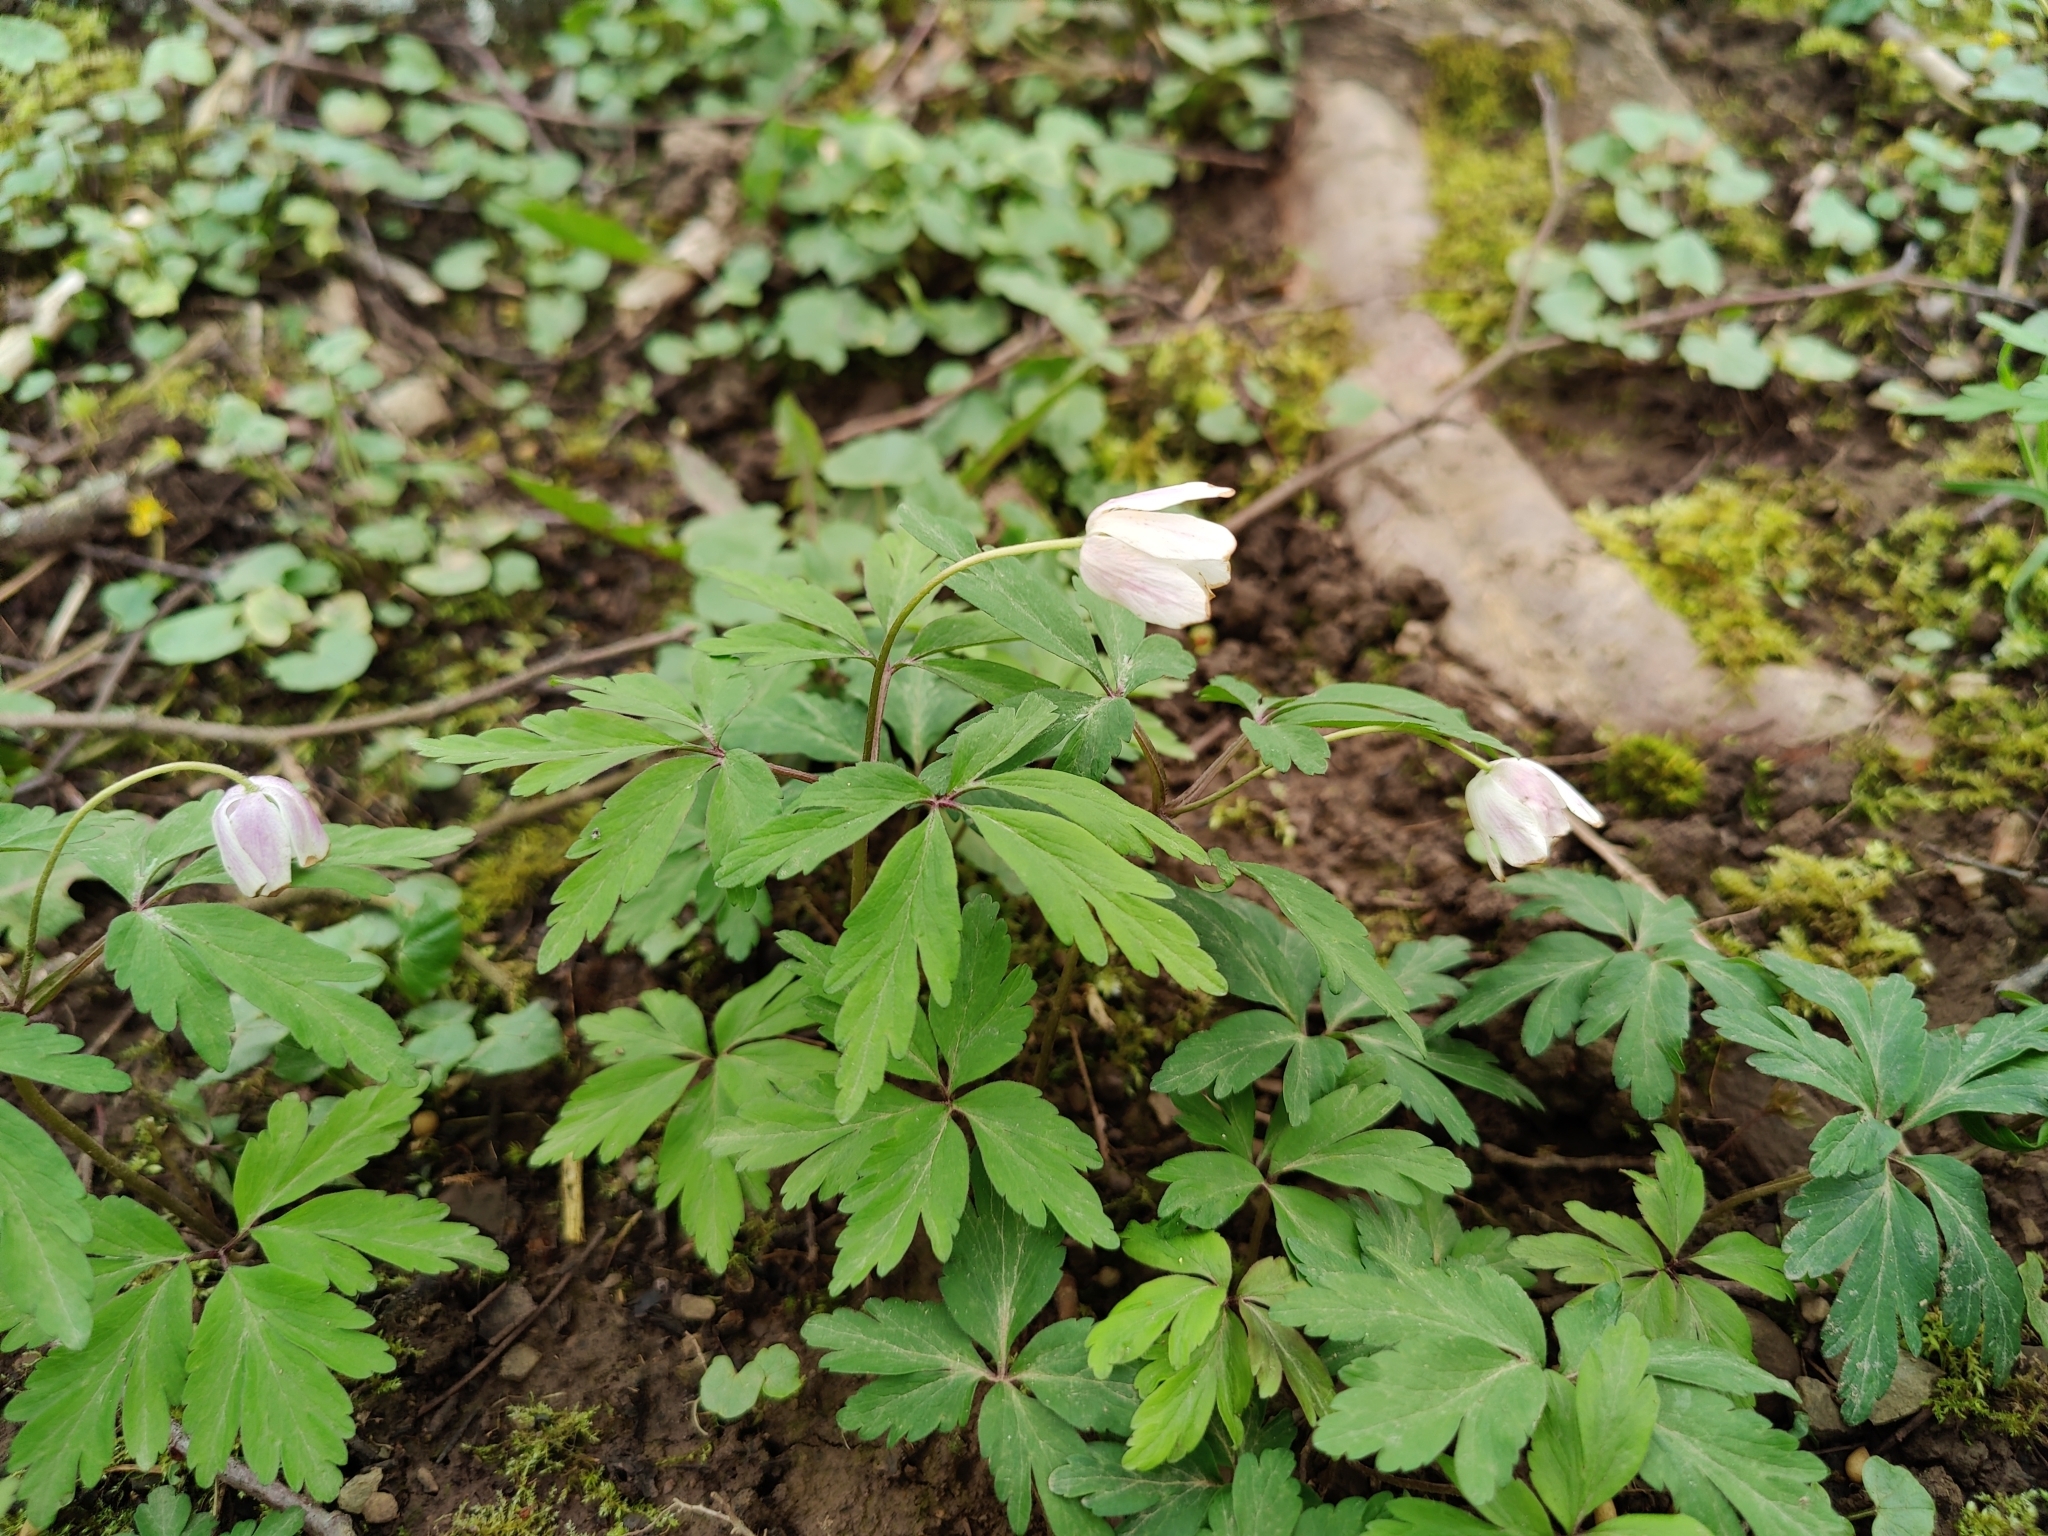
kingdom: Plantae
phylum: Tracheophyta
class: Magnoliopsida
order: Ranunculales
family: Ranunculaceae
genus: Anemone
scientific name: Anemone nemorosa
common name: Wood anemone
